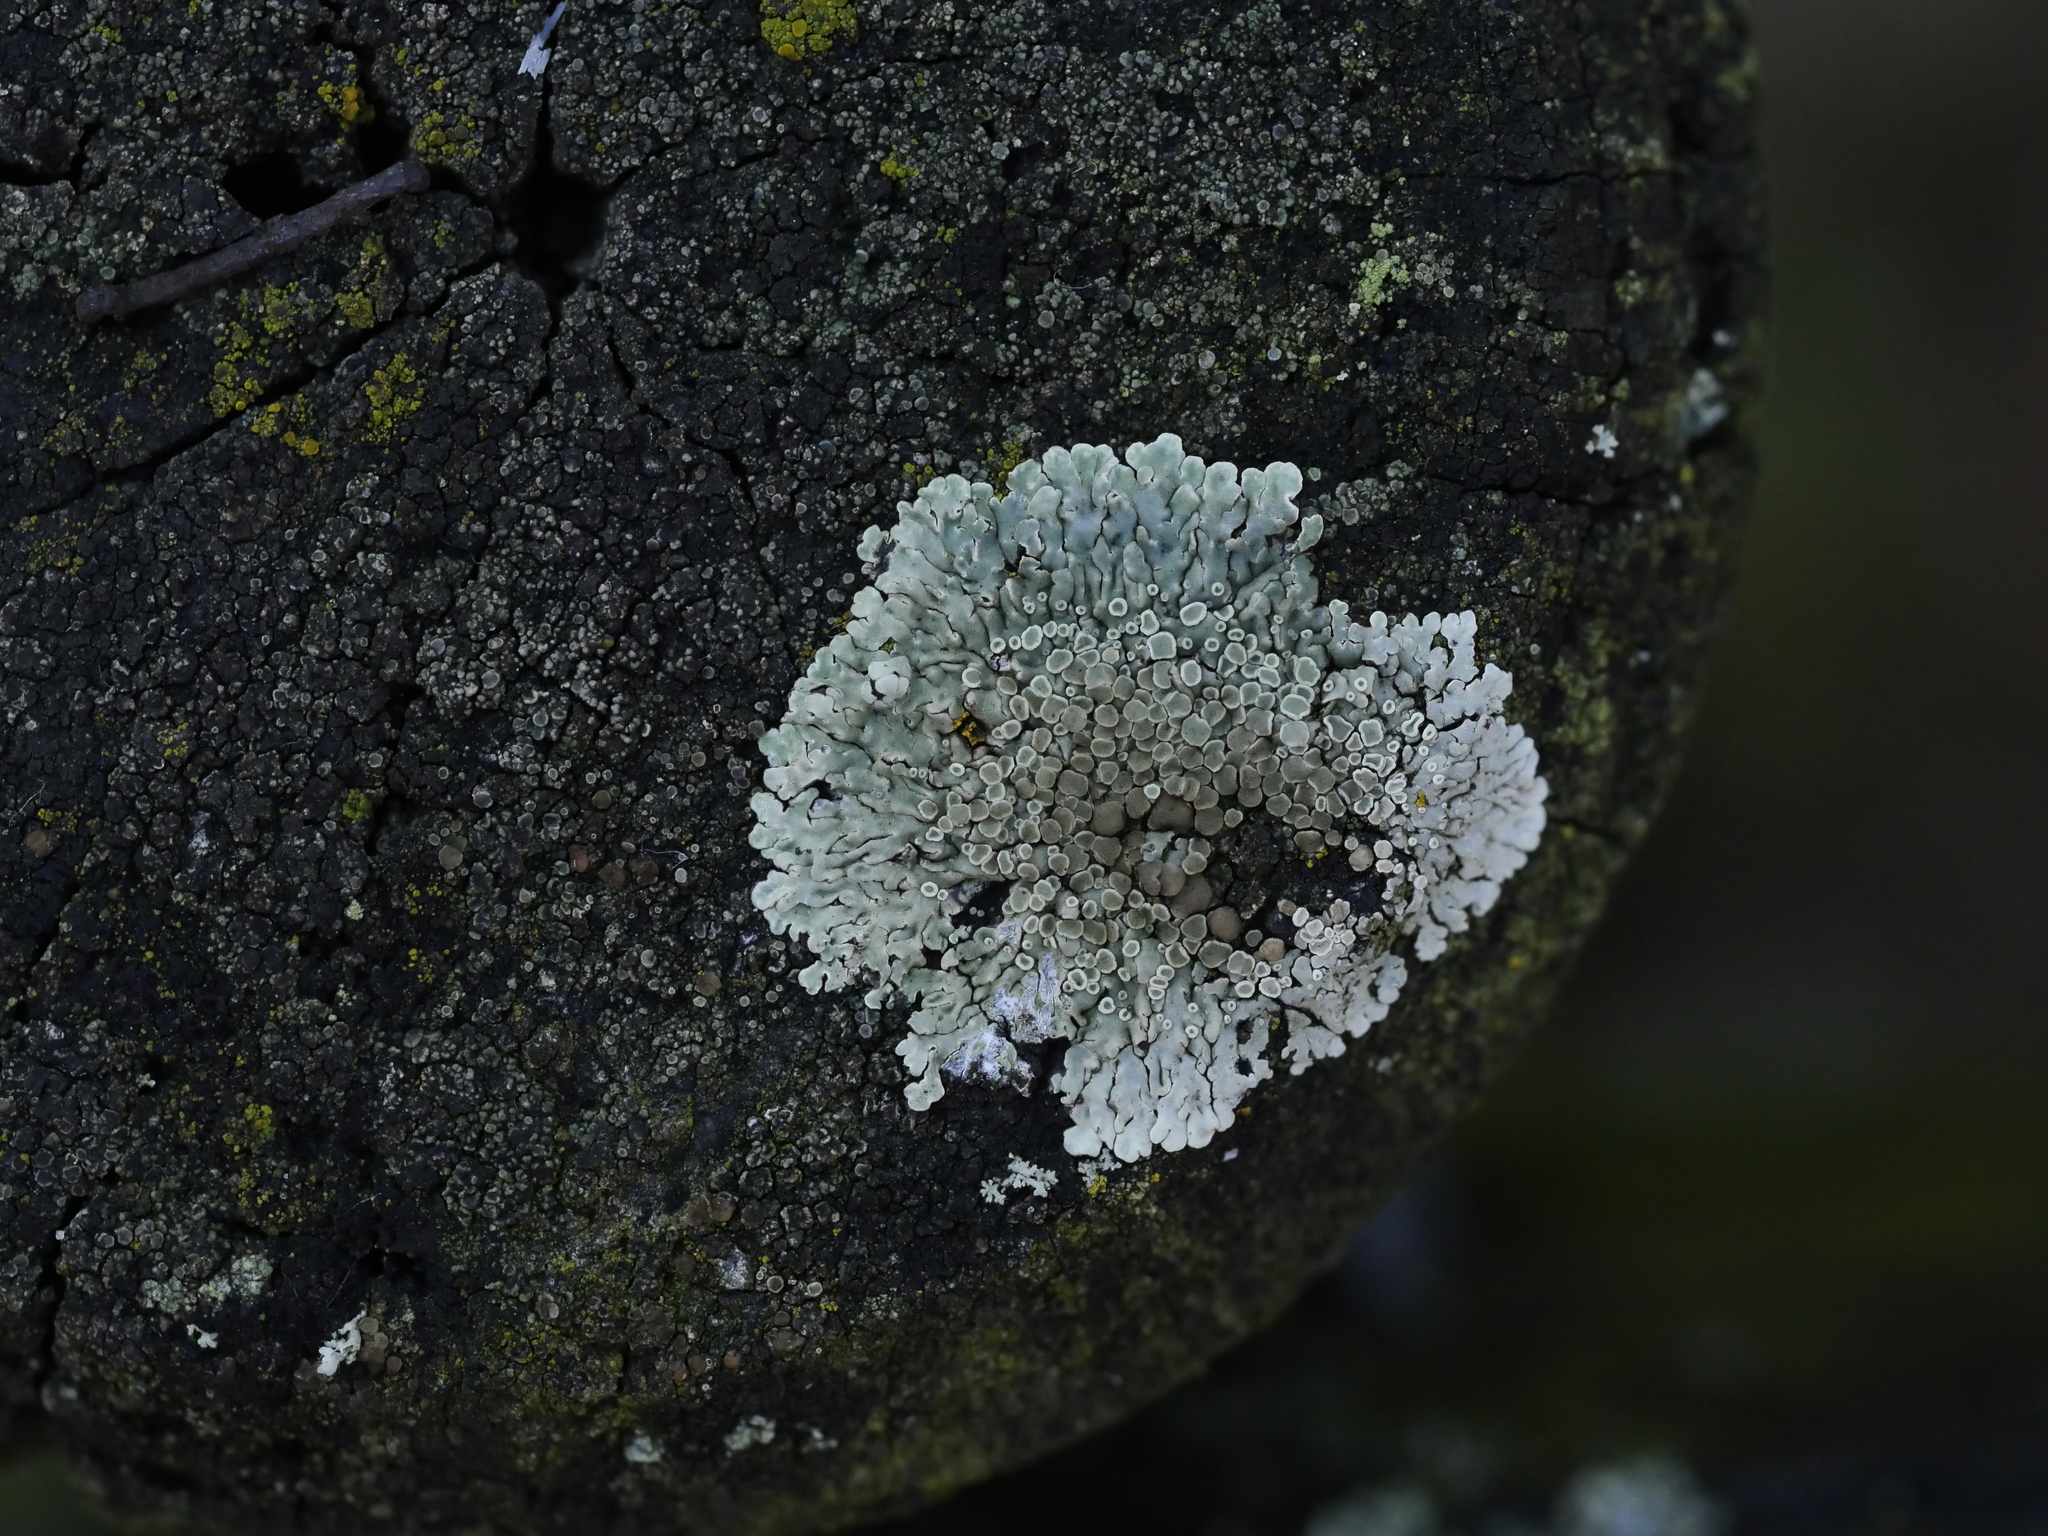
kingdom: Fungi
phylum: Ascomycota
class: Lecanoromycetes
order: Lecanorales
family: Lecanoraceae
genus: Protoparmeliopsis
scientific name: Protoparmeliopsis muralis
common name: Stonewall rim lichen
